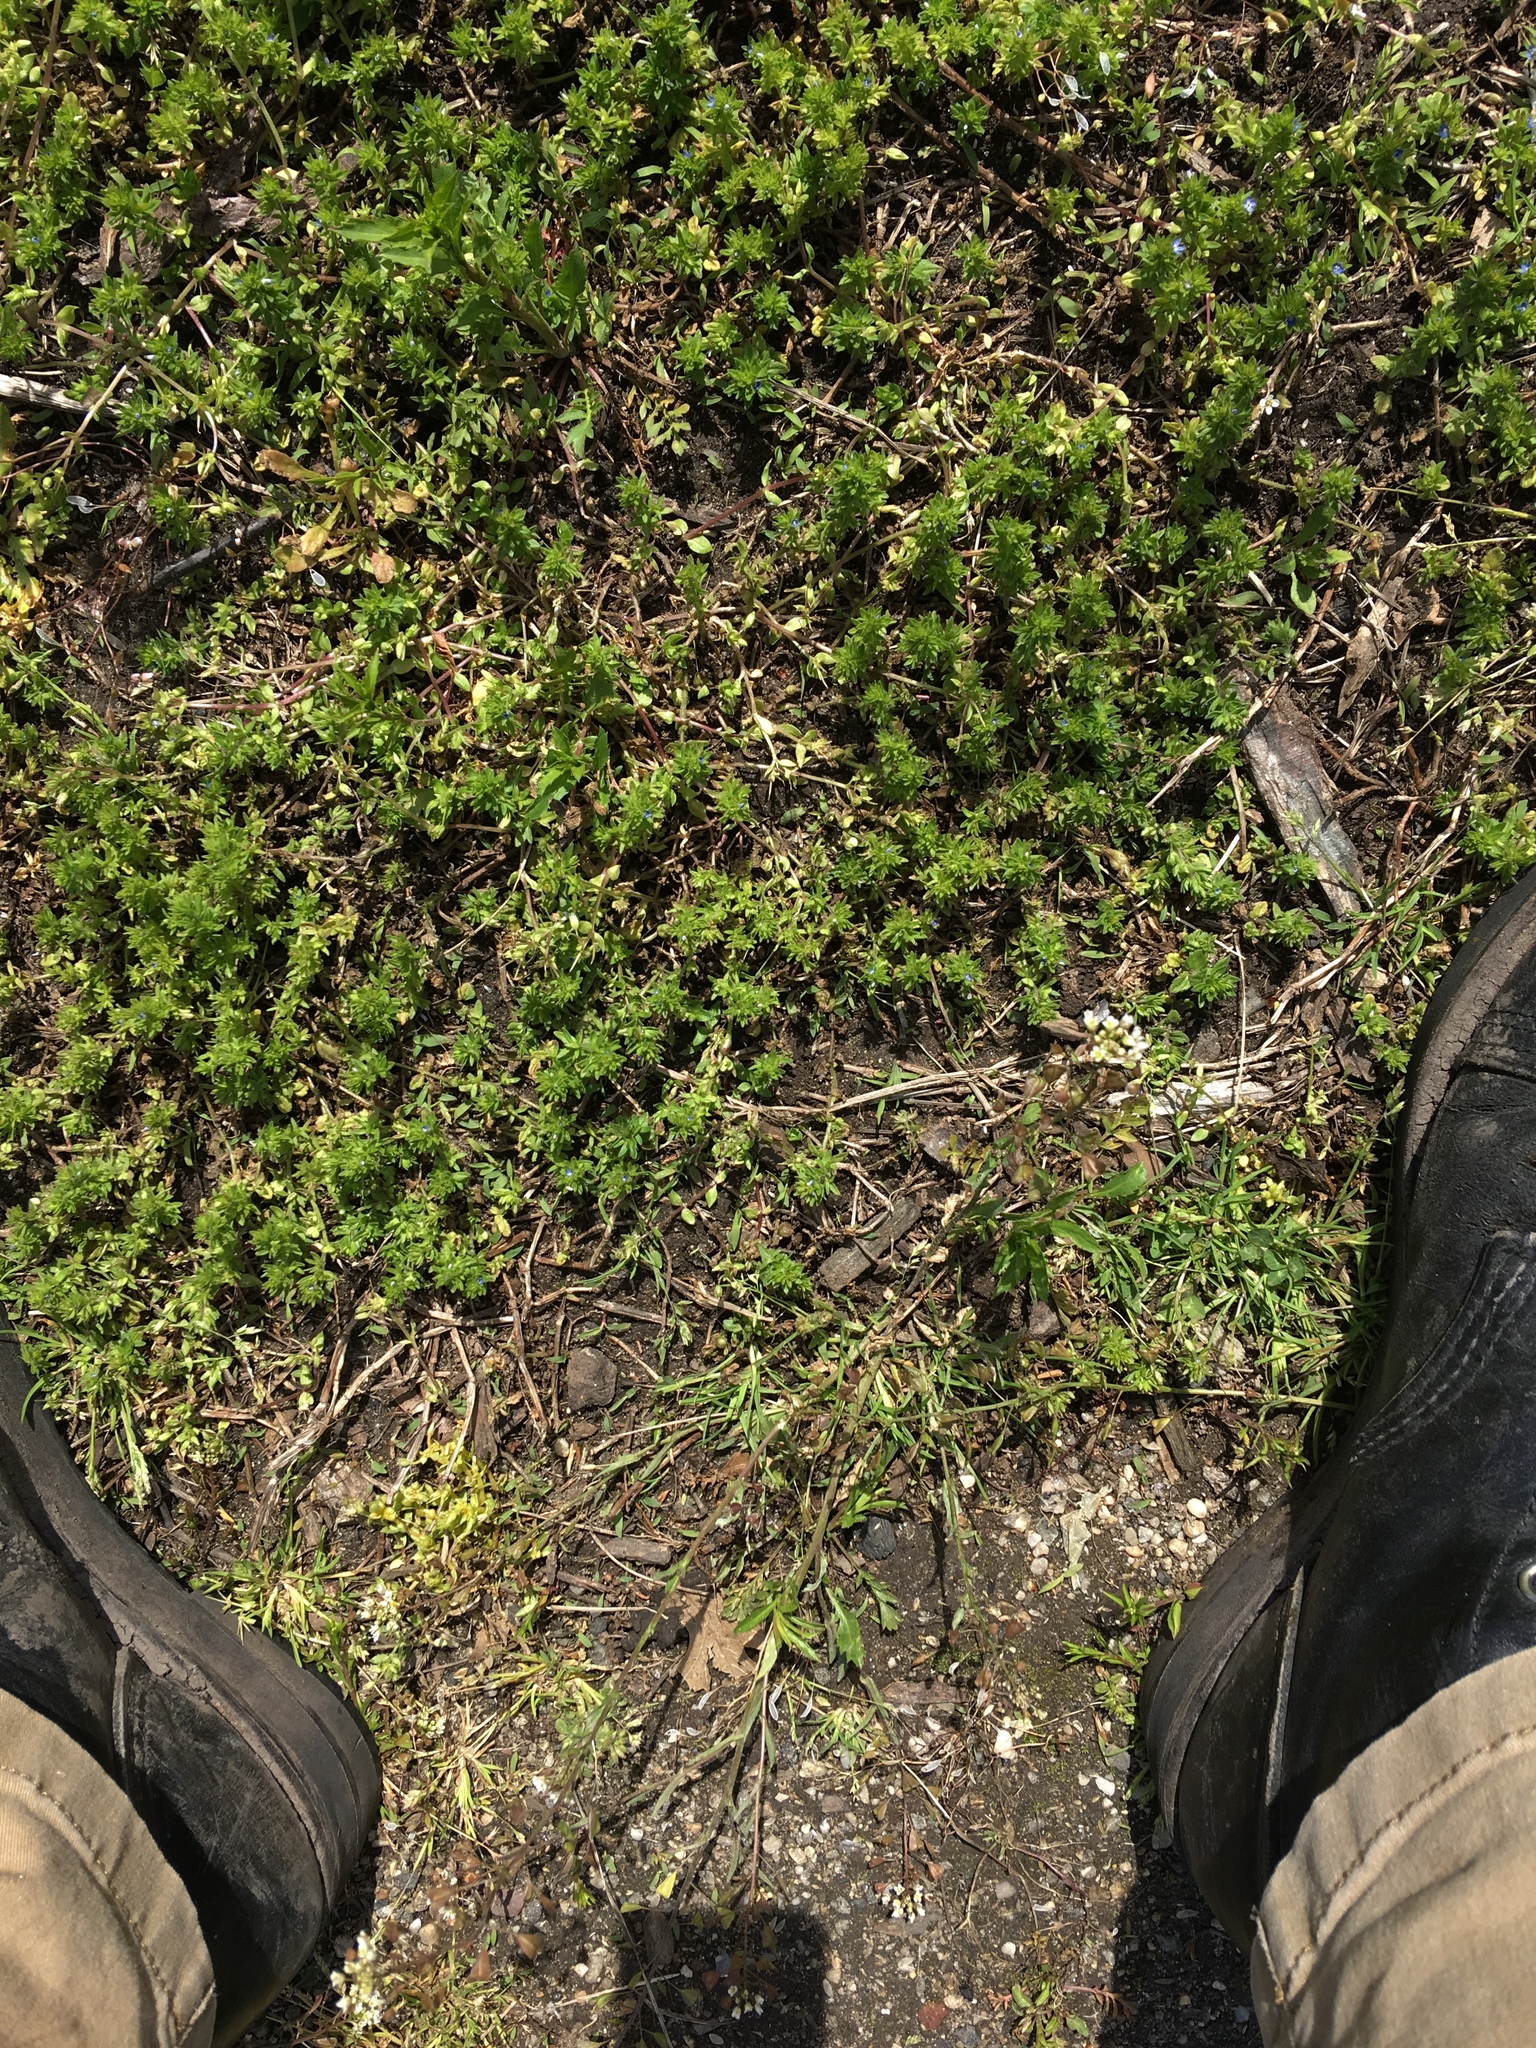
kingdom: Plantae
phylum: Tracheophyta
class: Magnoliopsida
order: Lamiales
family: Plantaginaceae
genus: Veronica
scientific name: Veronica arvensis
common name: Corn speedwell
